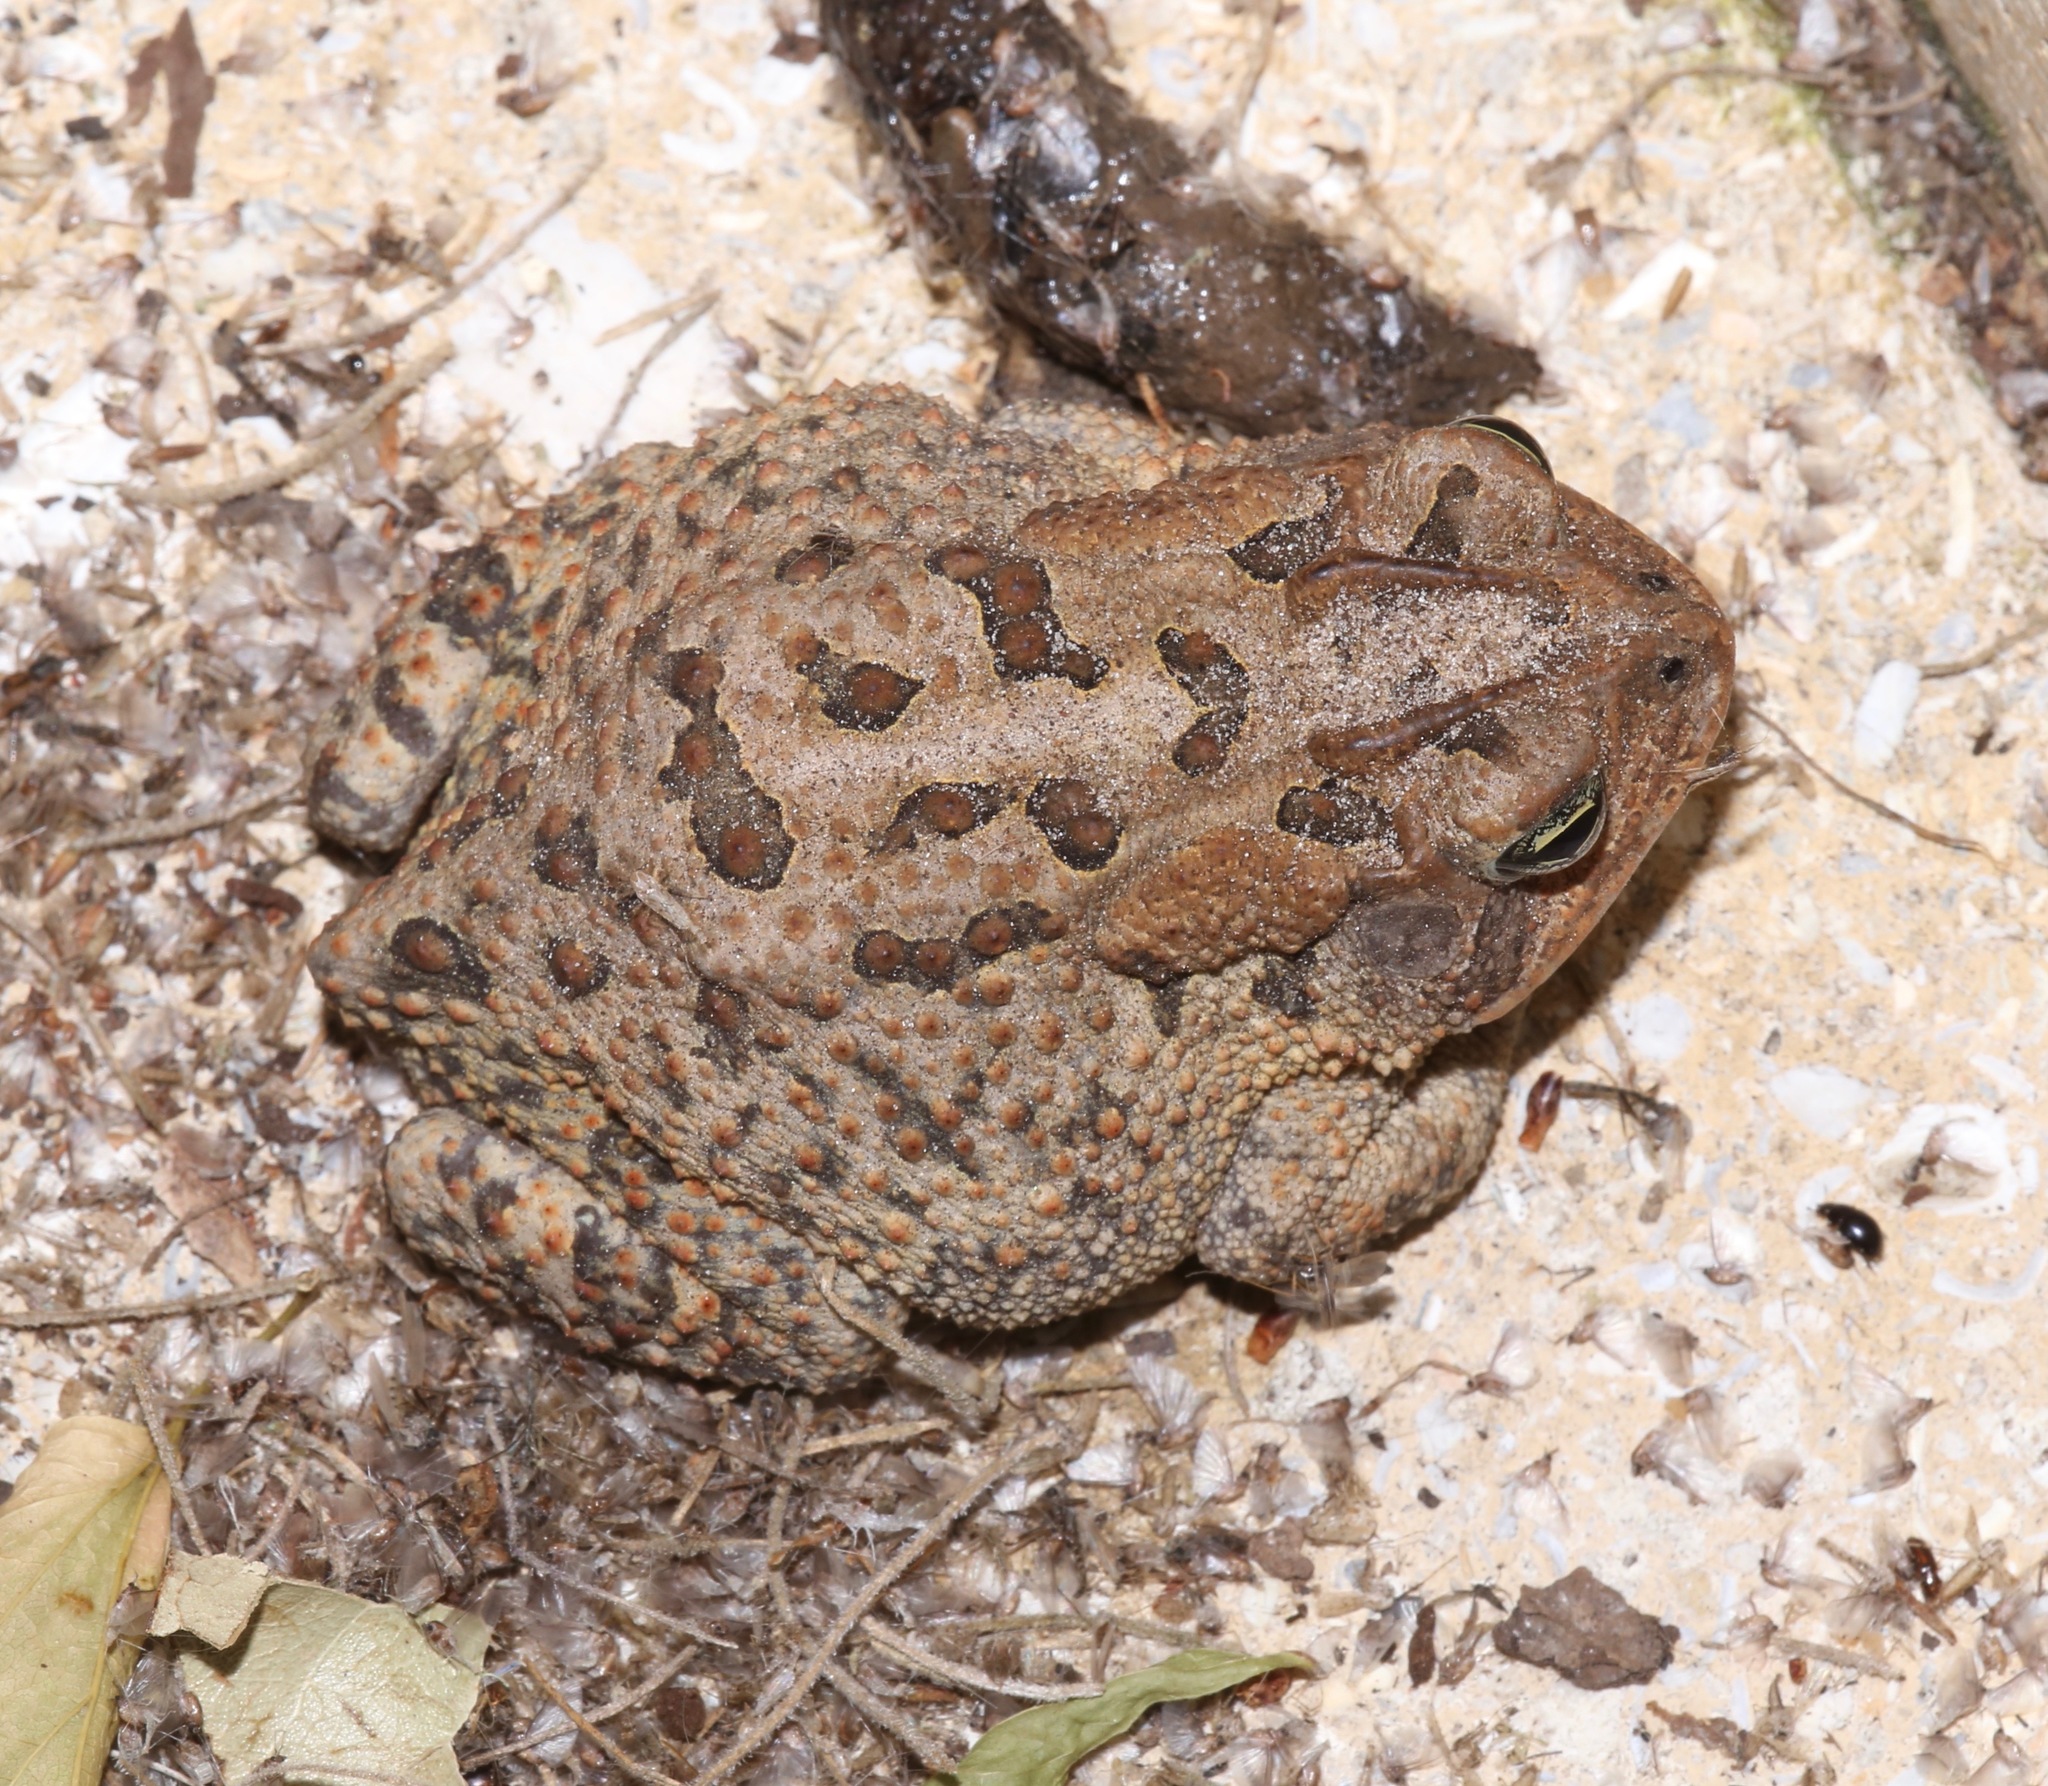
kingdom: Animalia
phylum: Chordata
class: Amphibia
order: Anura
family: Bufonidae
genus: Anaxyrus
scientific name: Anaxyrus terrestris
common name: Southern toad
